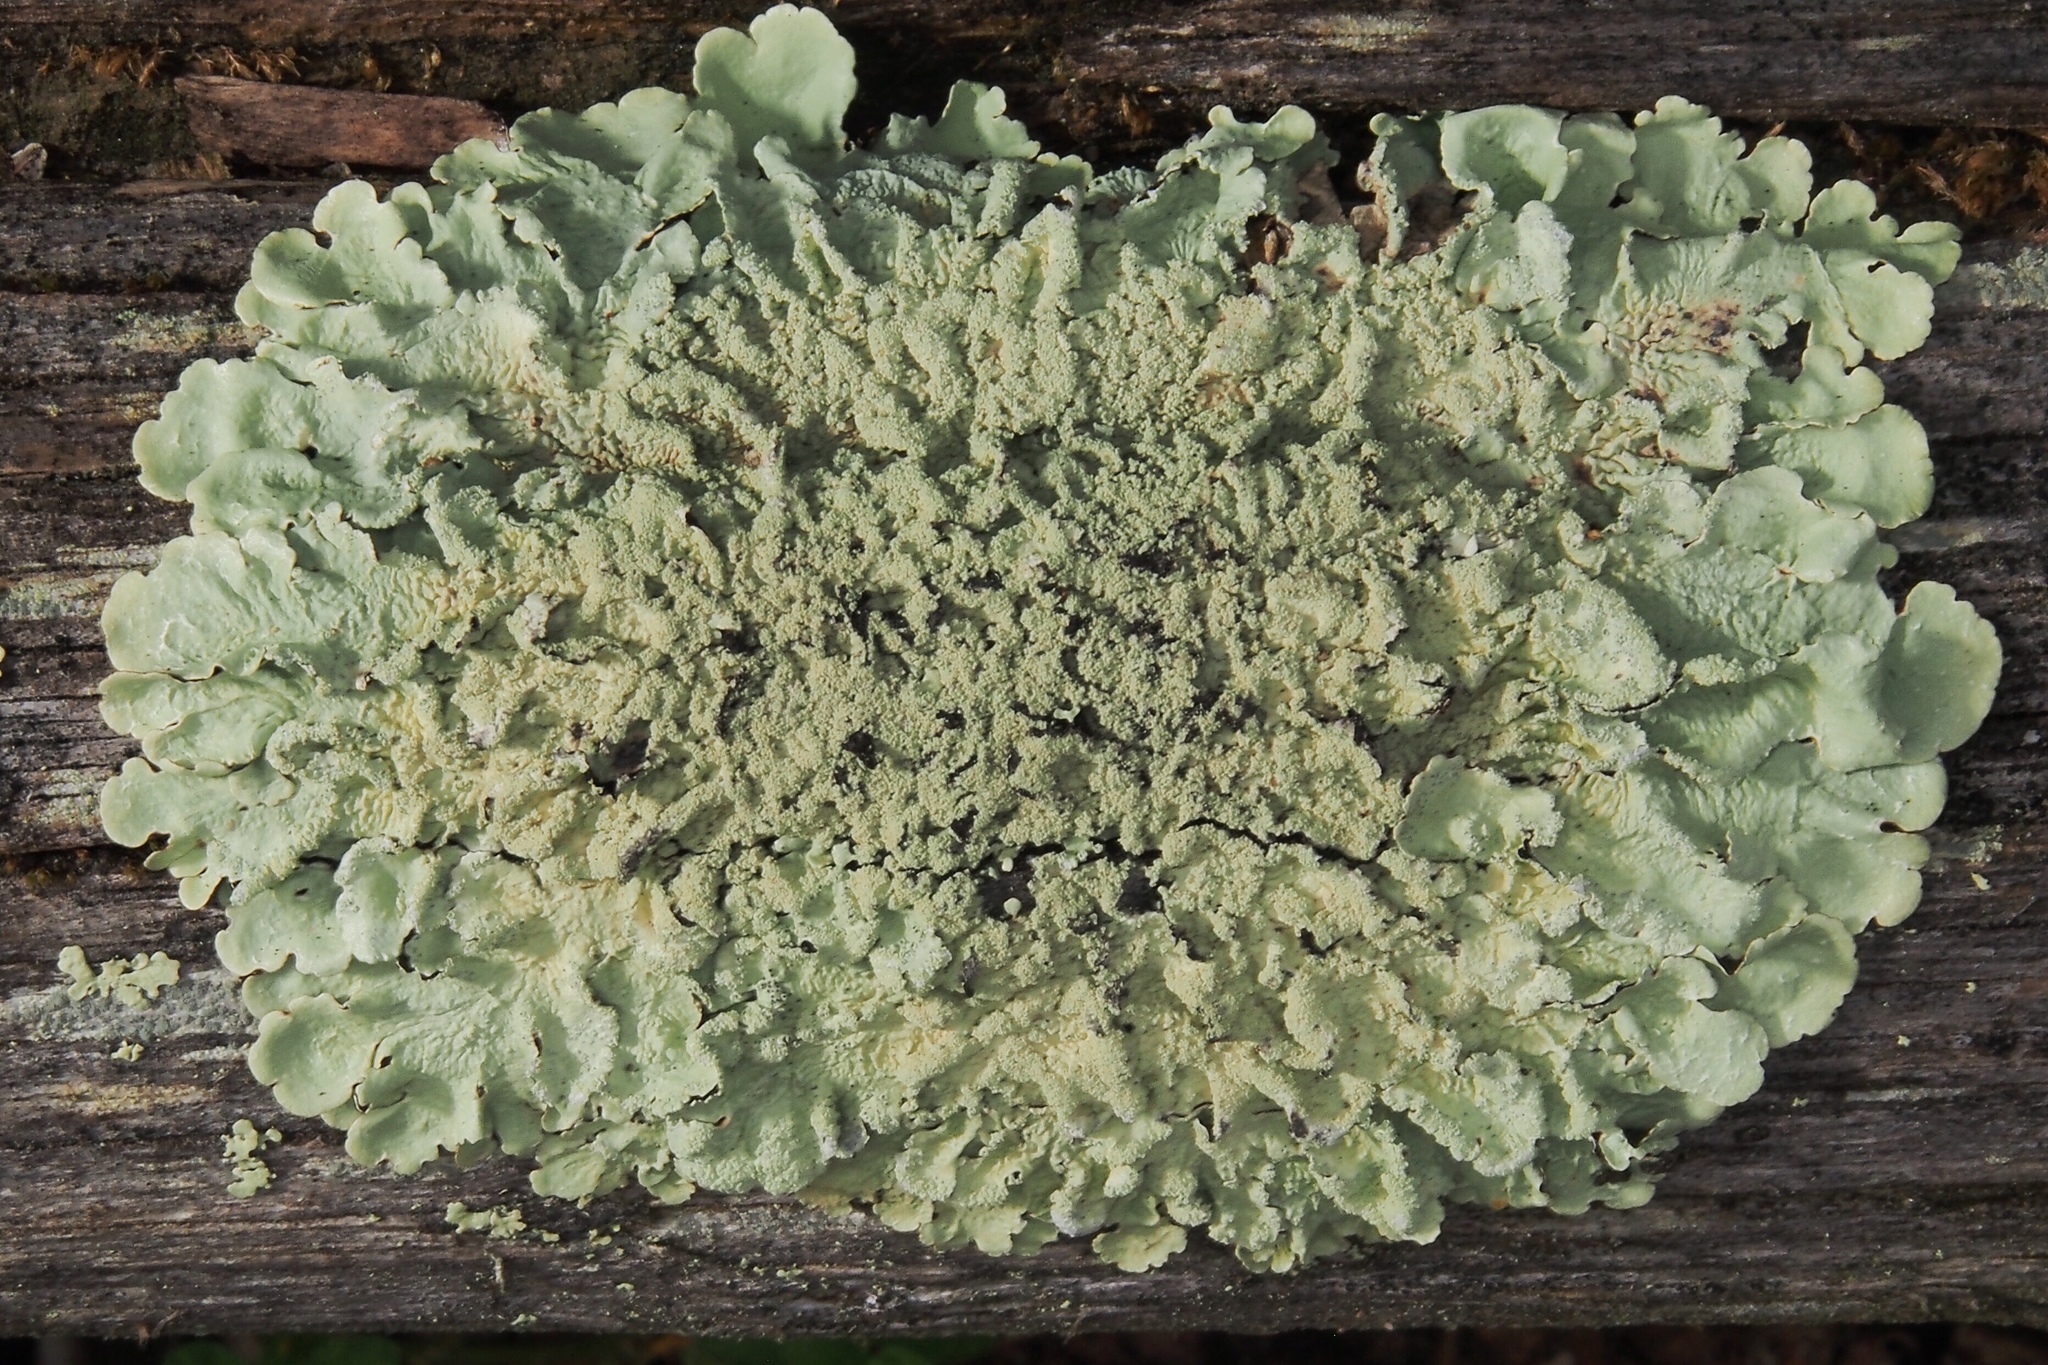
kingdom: Fungi
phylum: Ascomycota
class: Lecanoromycetes
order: Lecanorales
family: Parmeliaceae
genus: Flavoparmelia
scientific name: Flavoparmelia caperata
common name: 40-mile per hour lichen
